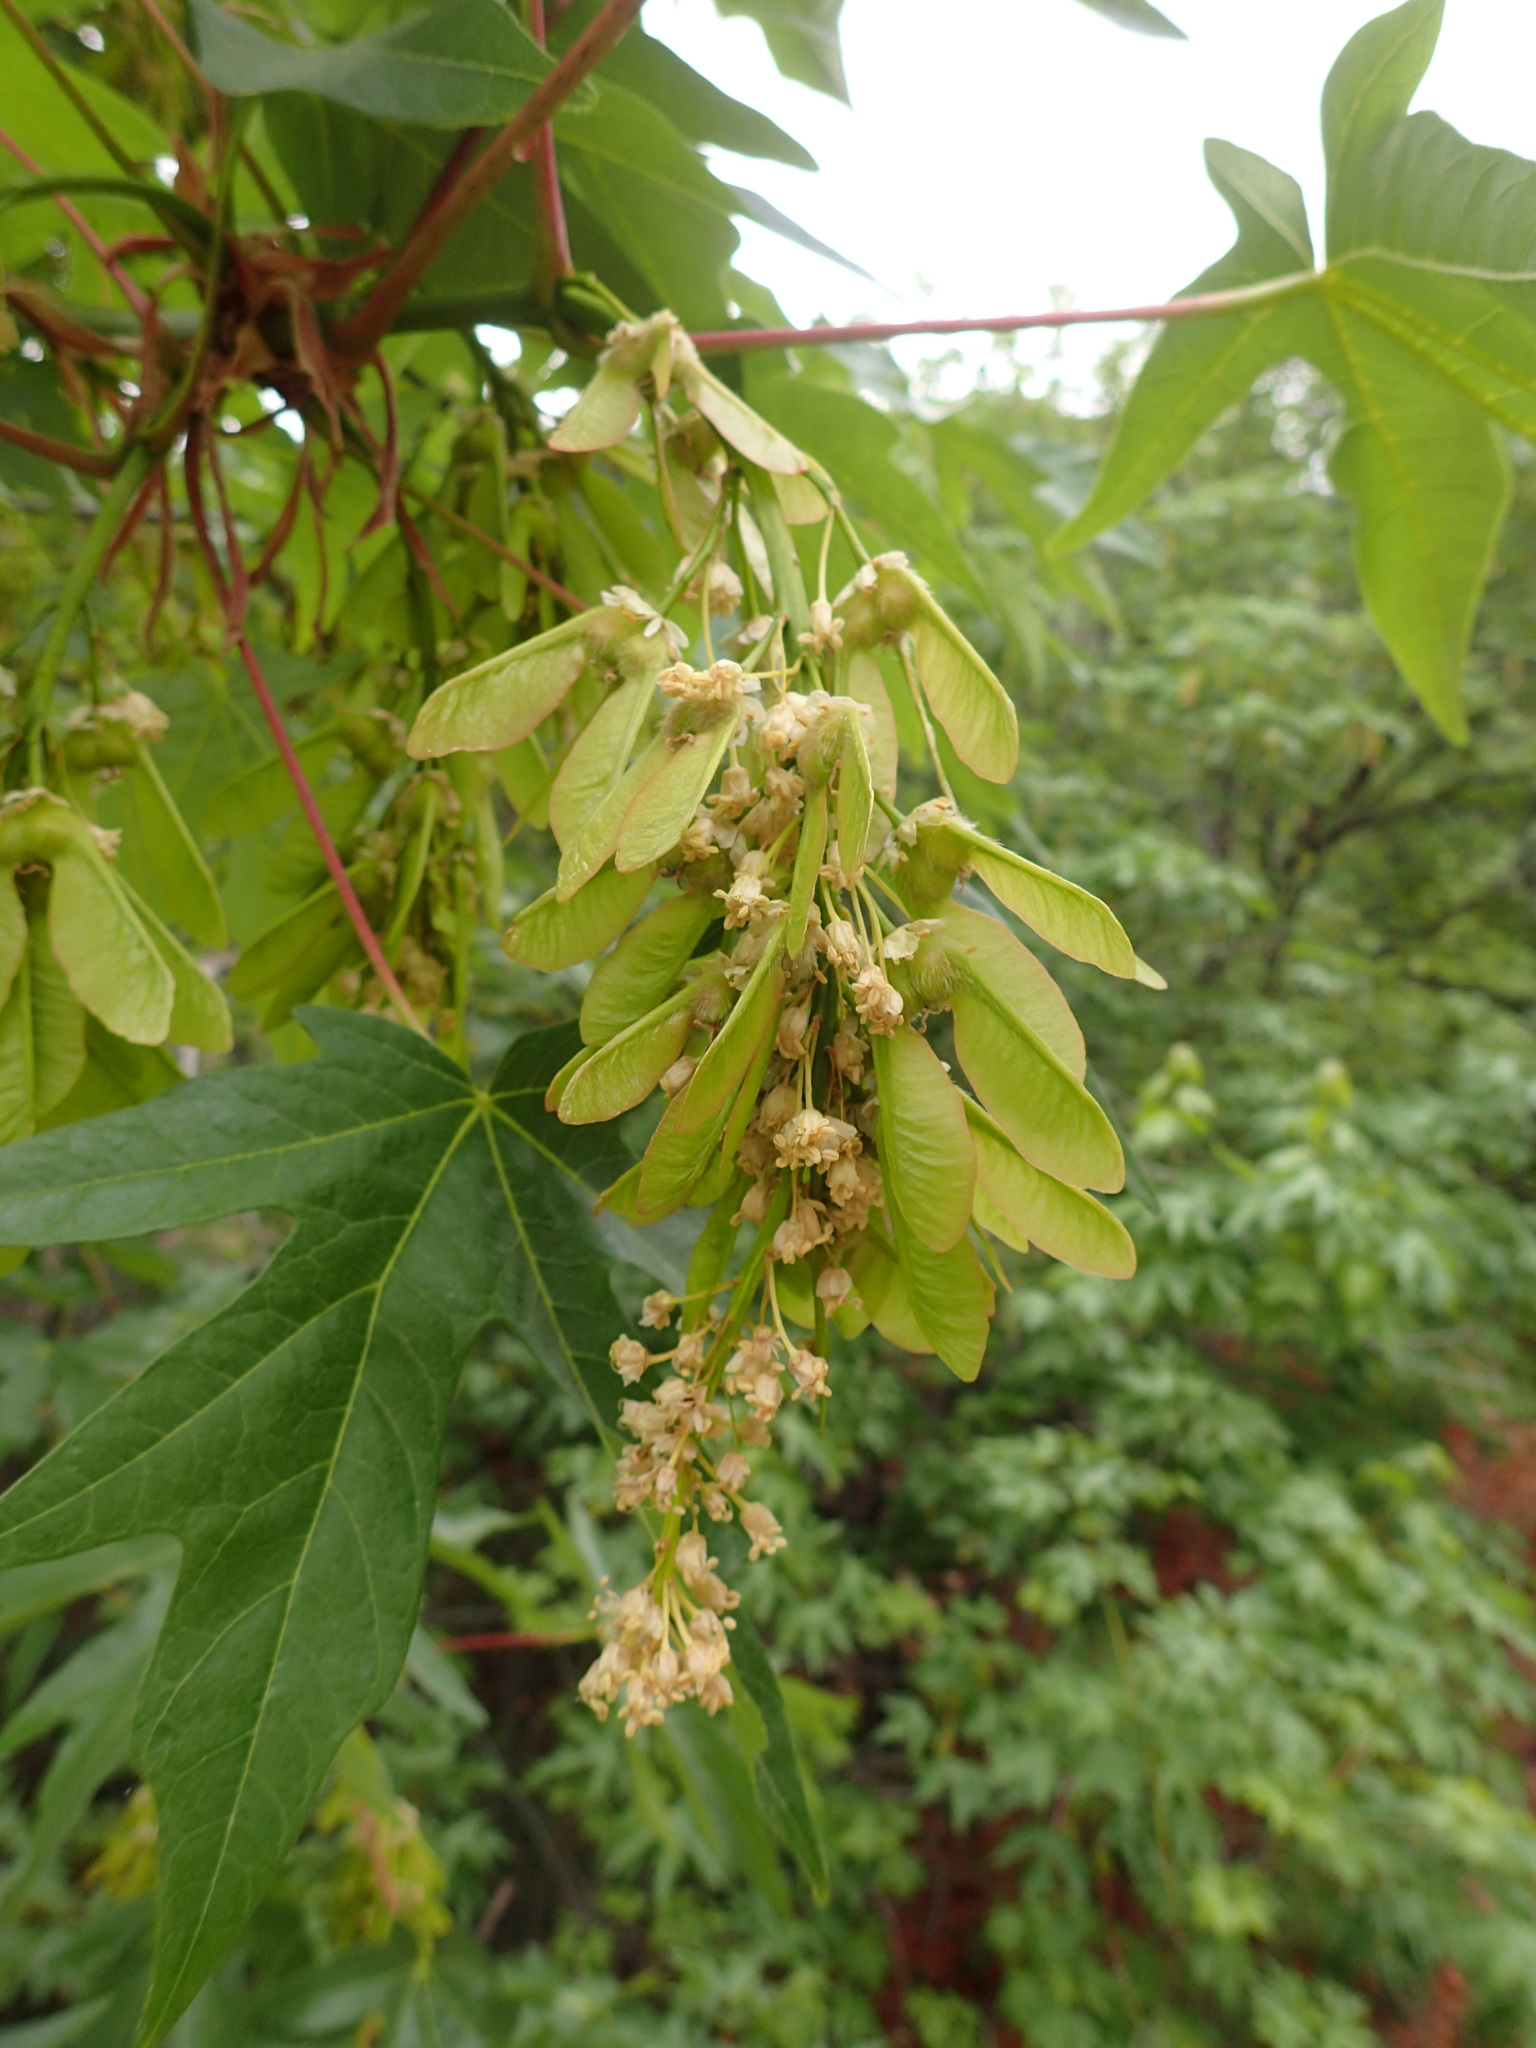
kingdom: Plantae
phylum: Tracheophyta
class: Magnoliopsida
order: Sapindales
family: Sapindaceae
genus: Acer
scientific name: Acer macrophyllum
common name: Oregon maple
